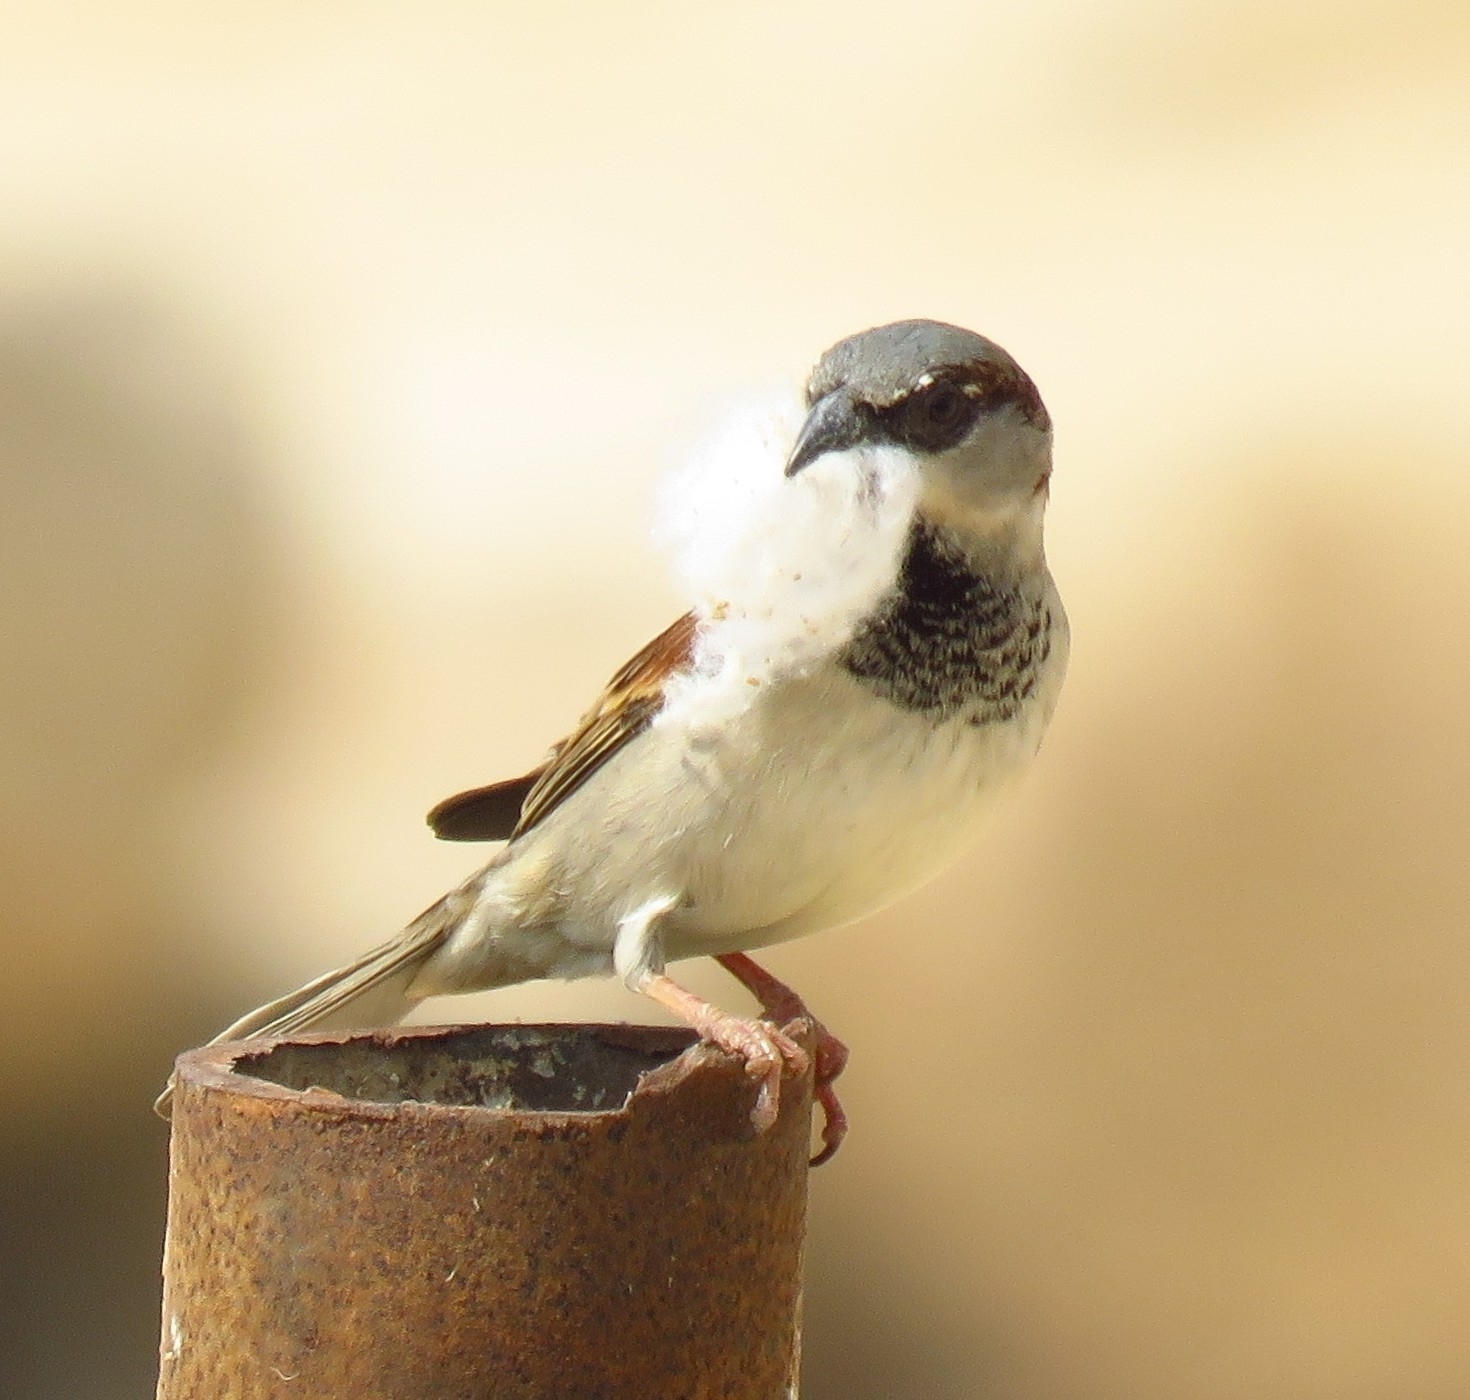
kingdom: Animalia
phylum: Chordata
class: Aves
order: Passeriformes
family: Passeridae
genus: Passer
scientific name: Passer domesticus
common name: House sparrow
